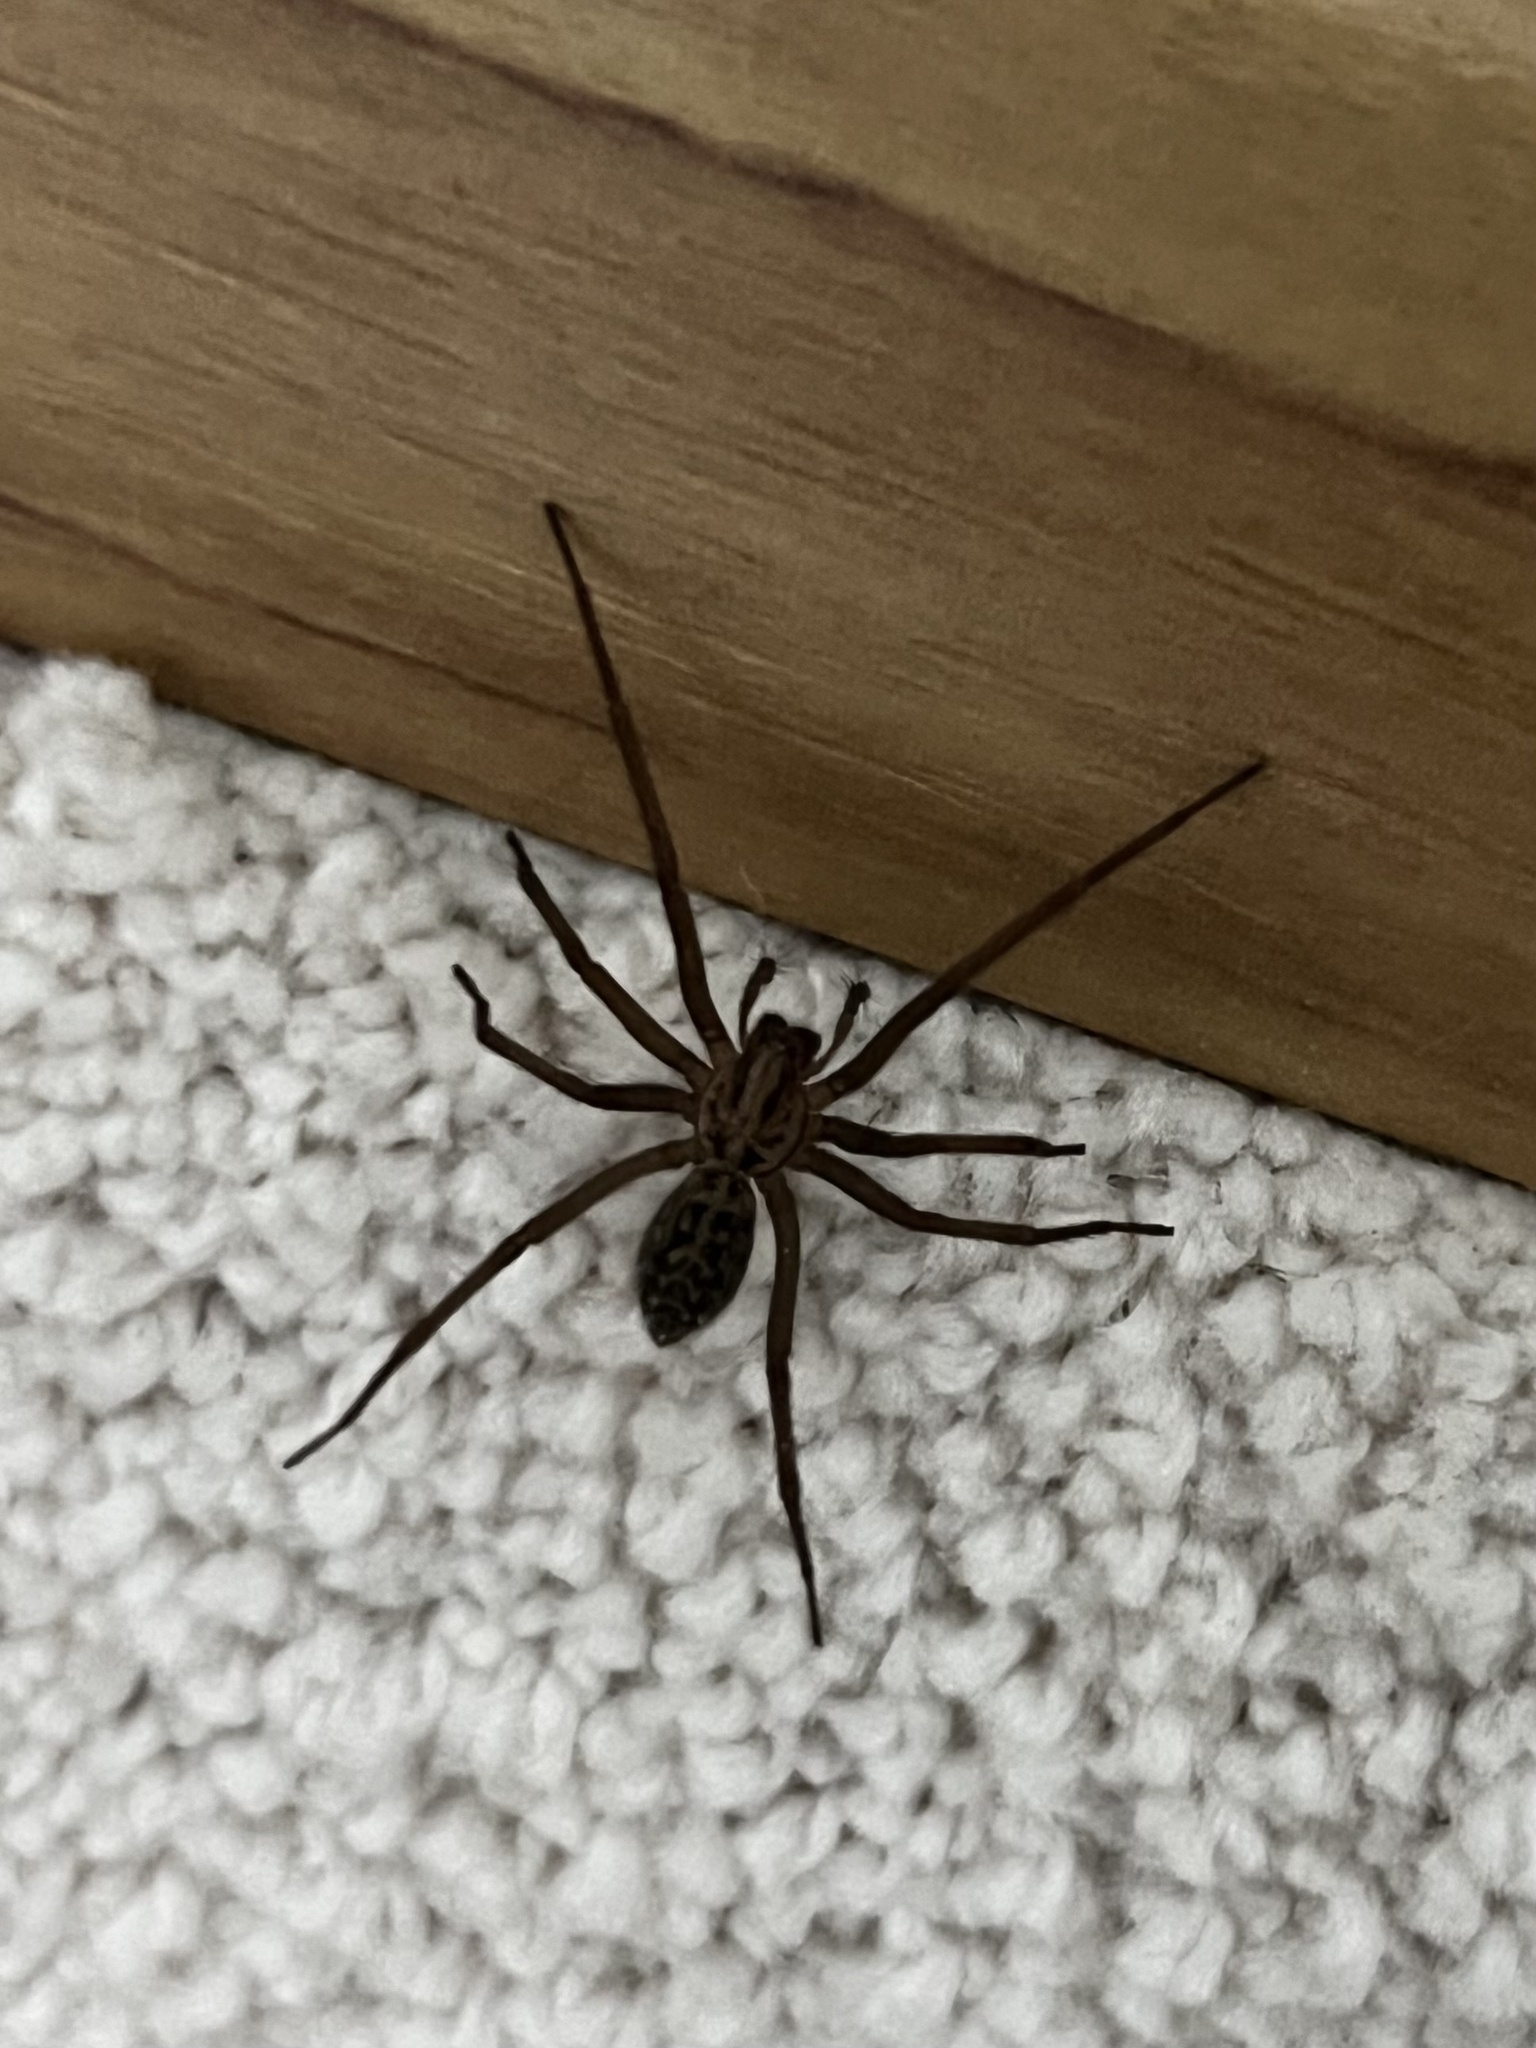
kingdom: Animalia
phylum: Arthropoda
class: Arachnida
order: Araneae
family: Agelenidae
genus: Eratigena
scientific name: Eratigena duellica
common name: Giant house spider
